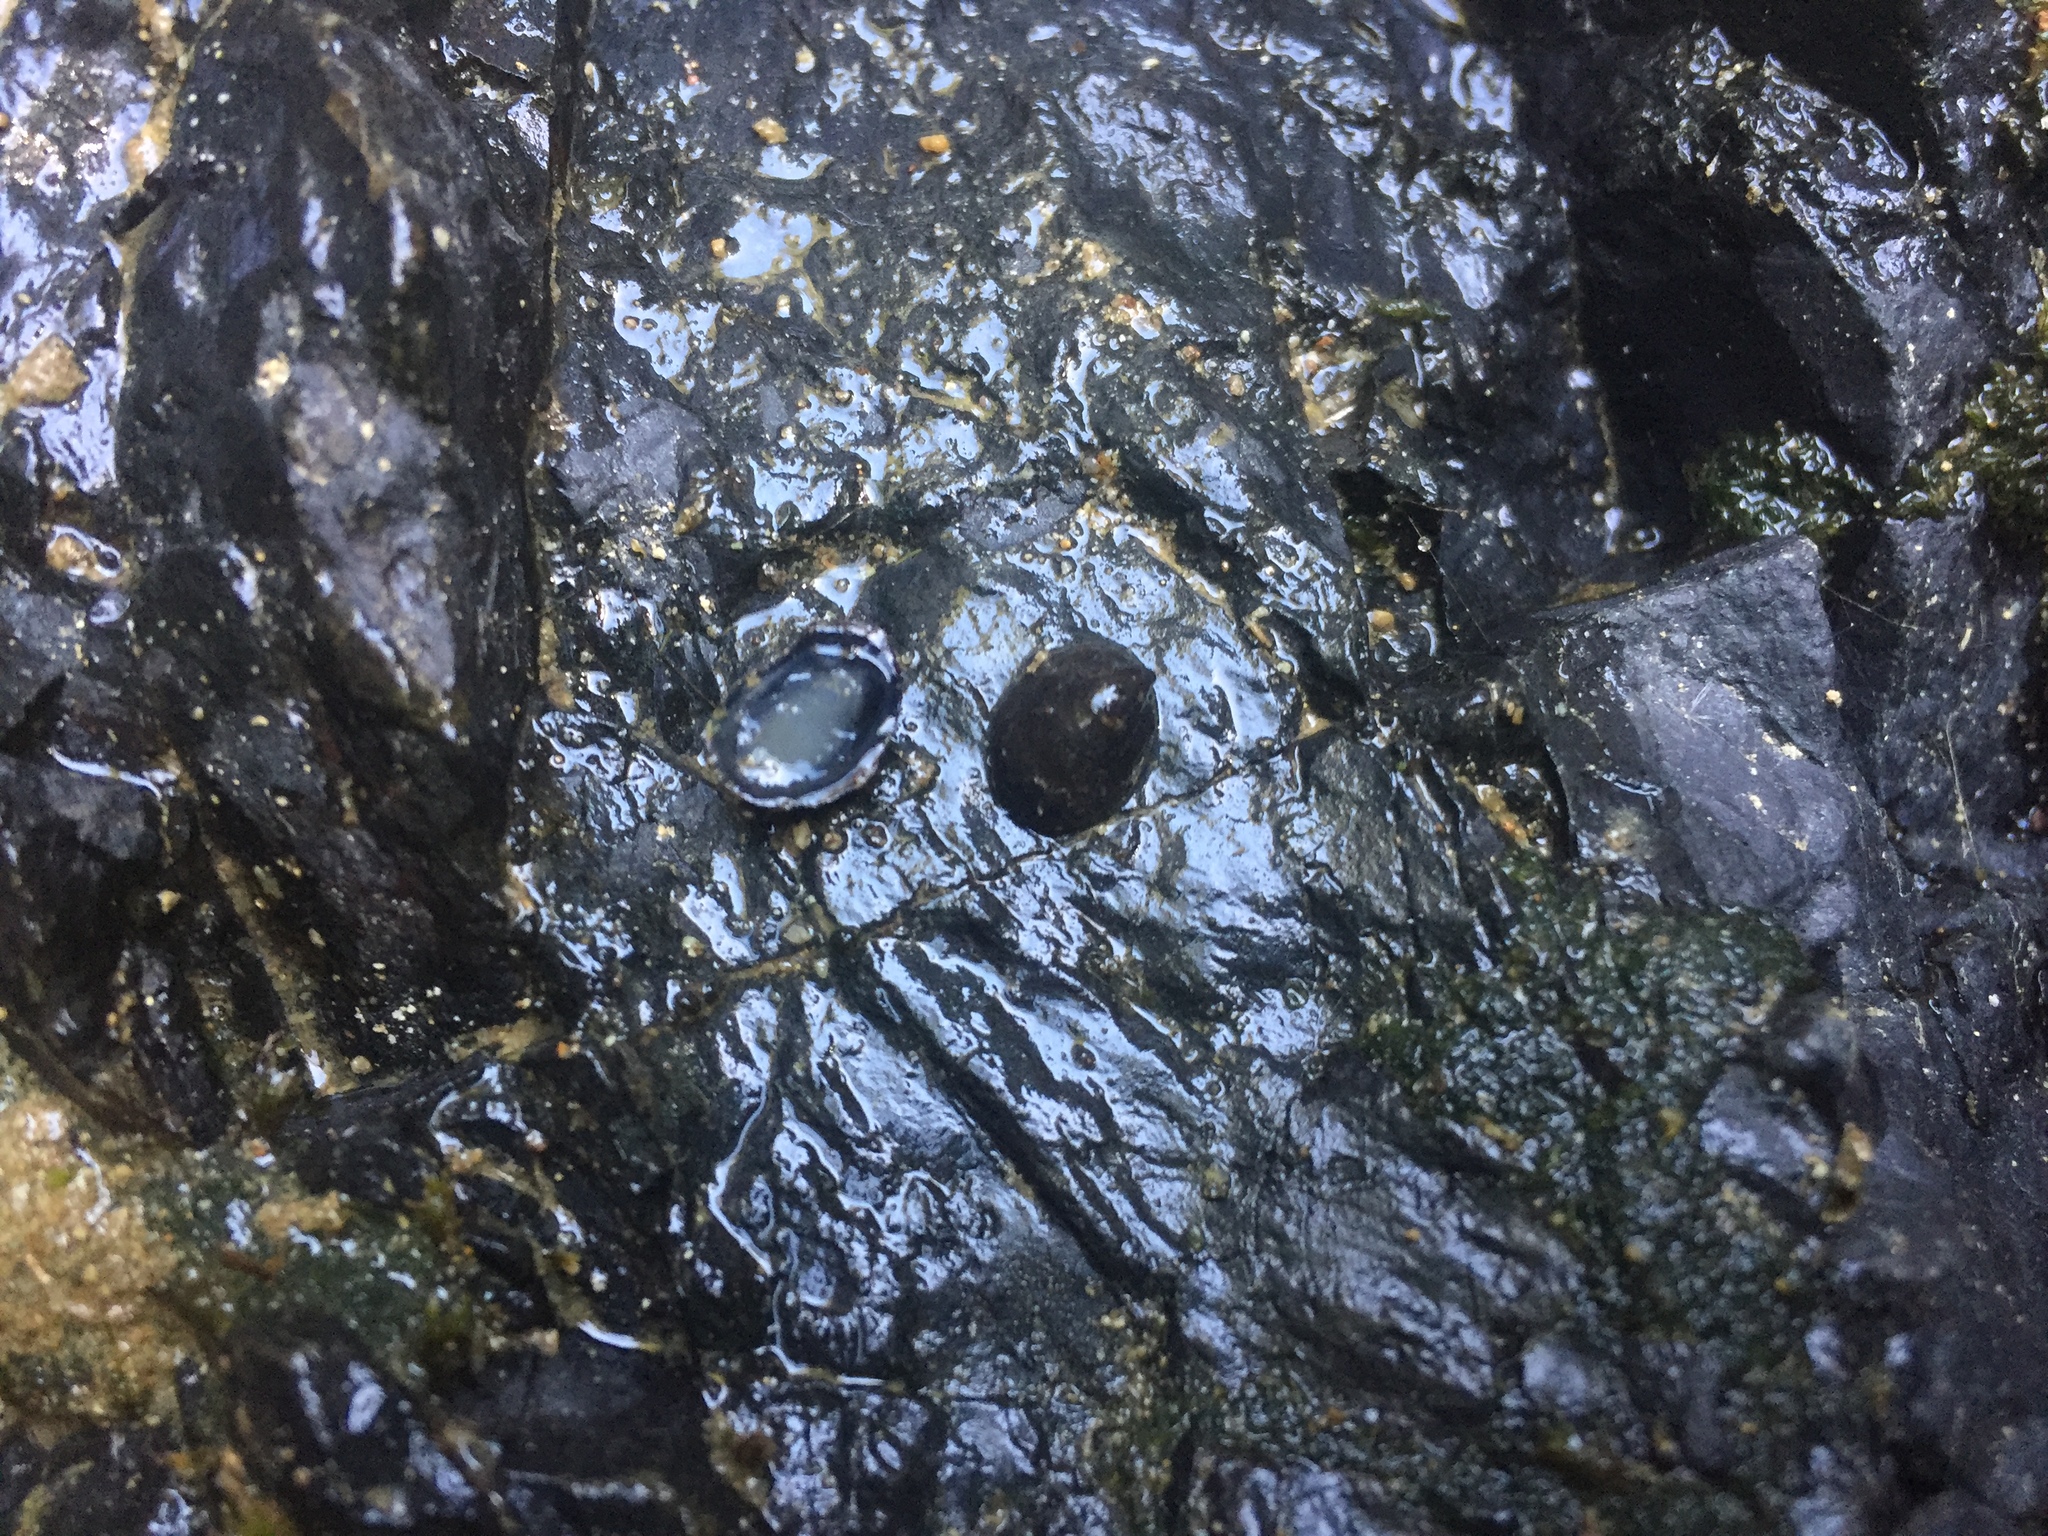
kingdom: Animalia
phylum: Mollusca
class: Gastropoda
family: Latiidae
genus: Latia
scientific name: Latia neritoides
